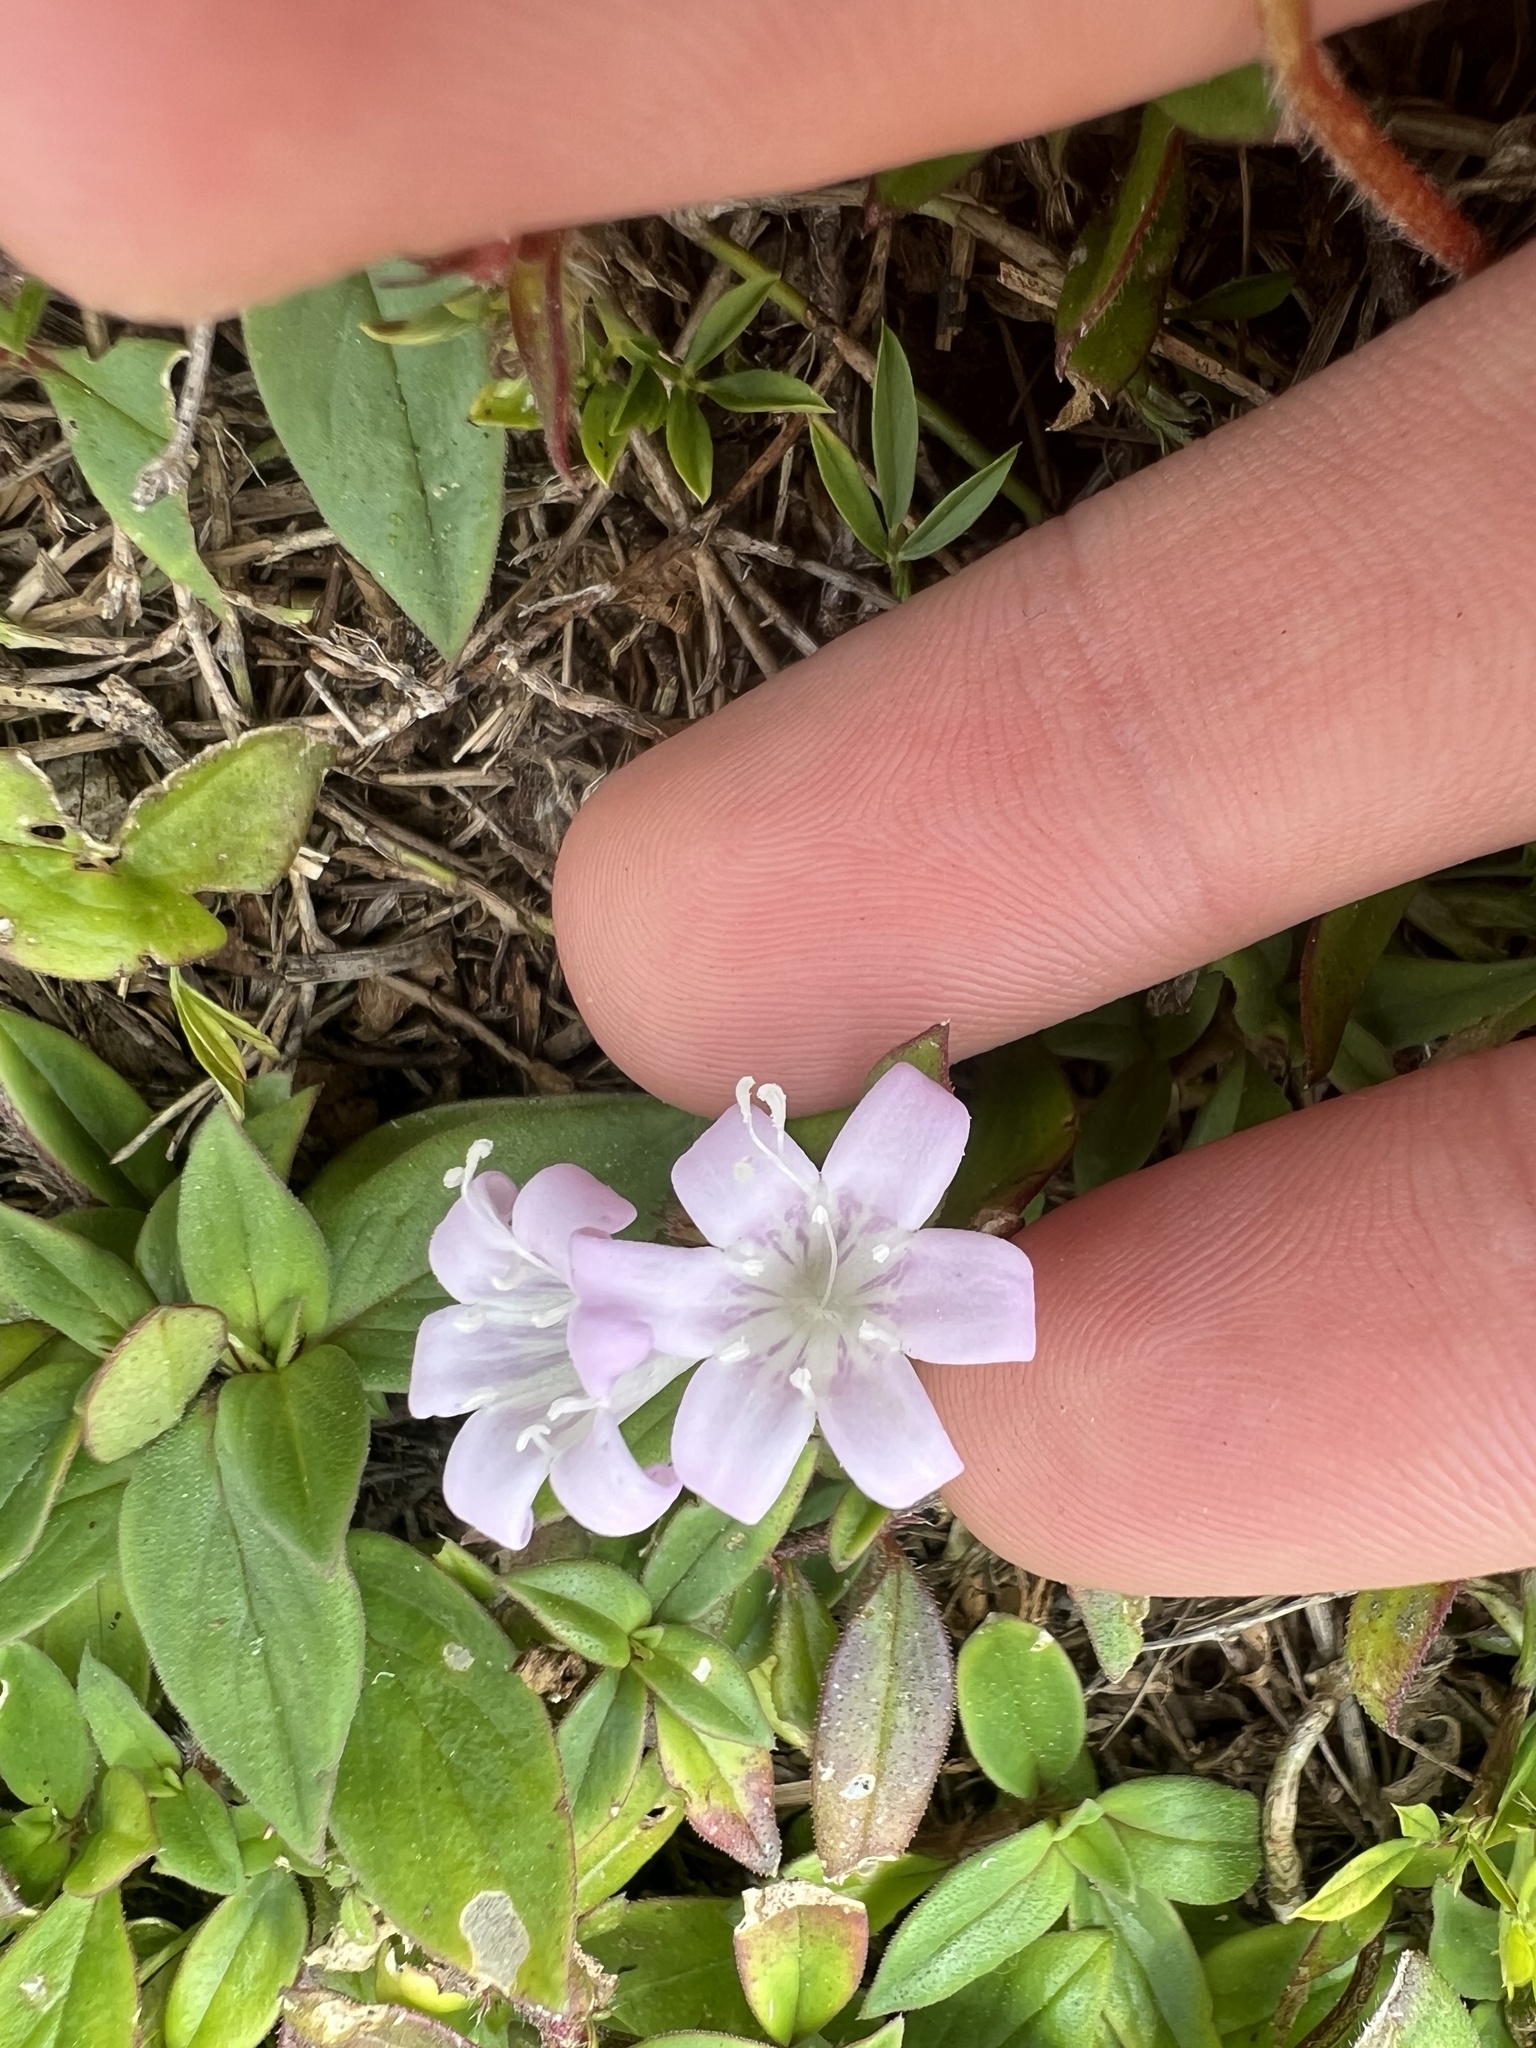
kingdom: Plantae
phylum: Tracheophyta
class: Magnoliopsida
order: Gentianales
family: Rubiaceae
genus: Richardia
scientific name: Richardia grandiflora
